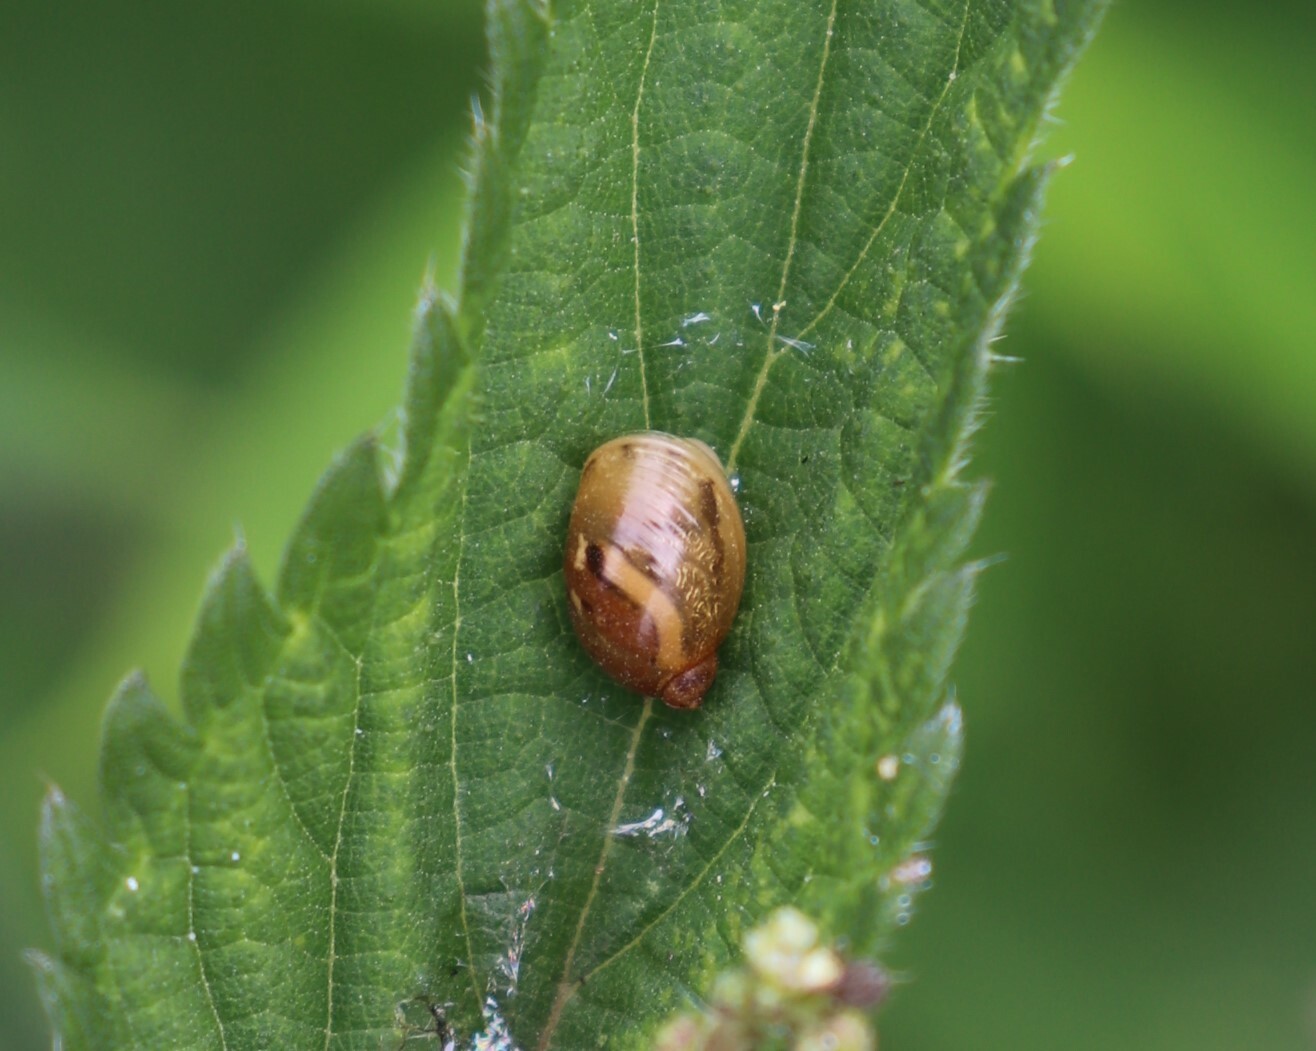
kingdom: Animalia
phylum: Mollusca
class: Gastropoda
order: Stylommatophora
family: Succineidae
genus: Succinea
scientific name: Succinea putris
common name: European ambersnail
